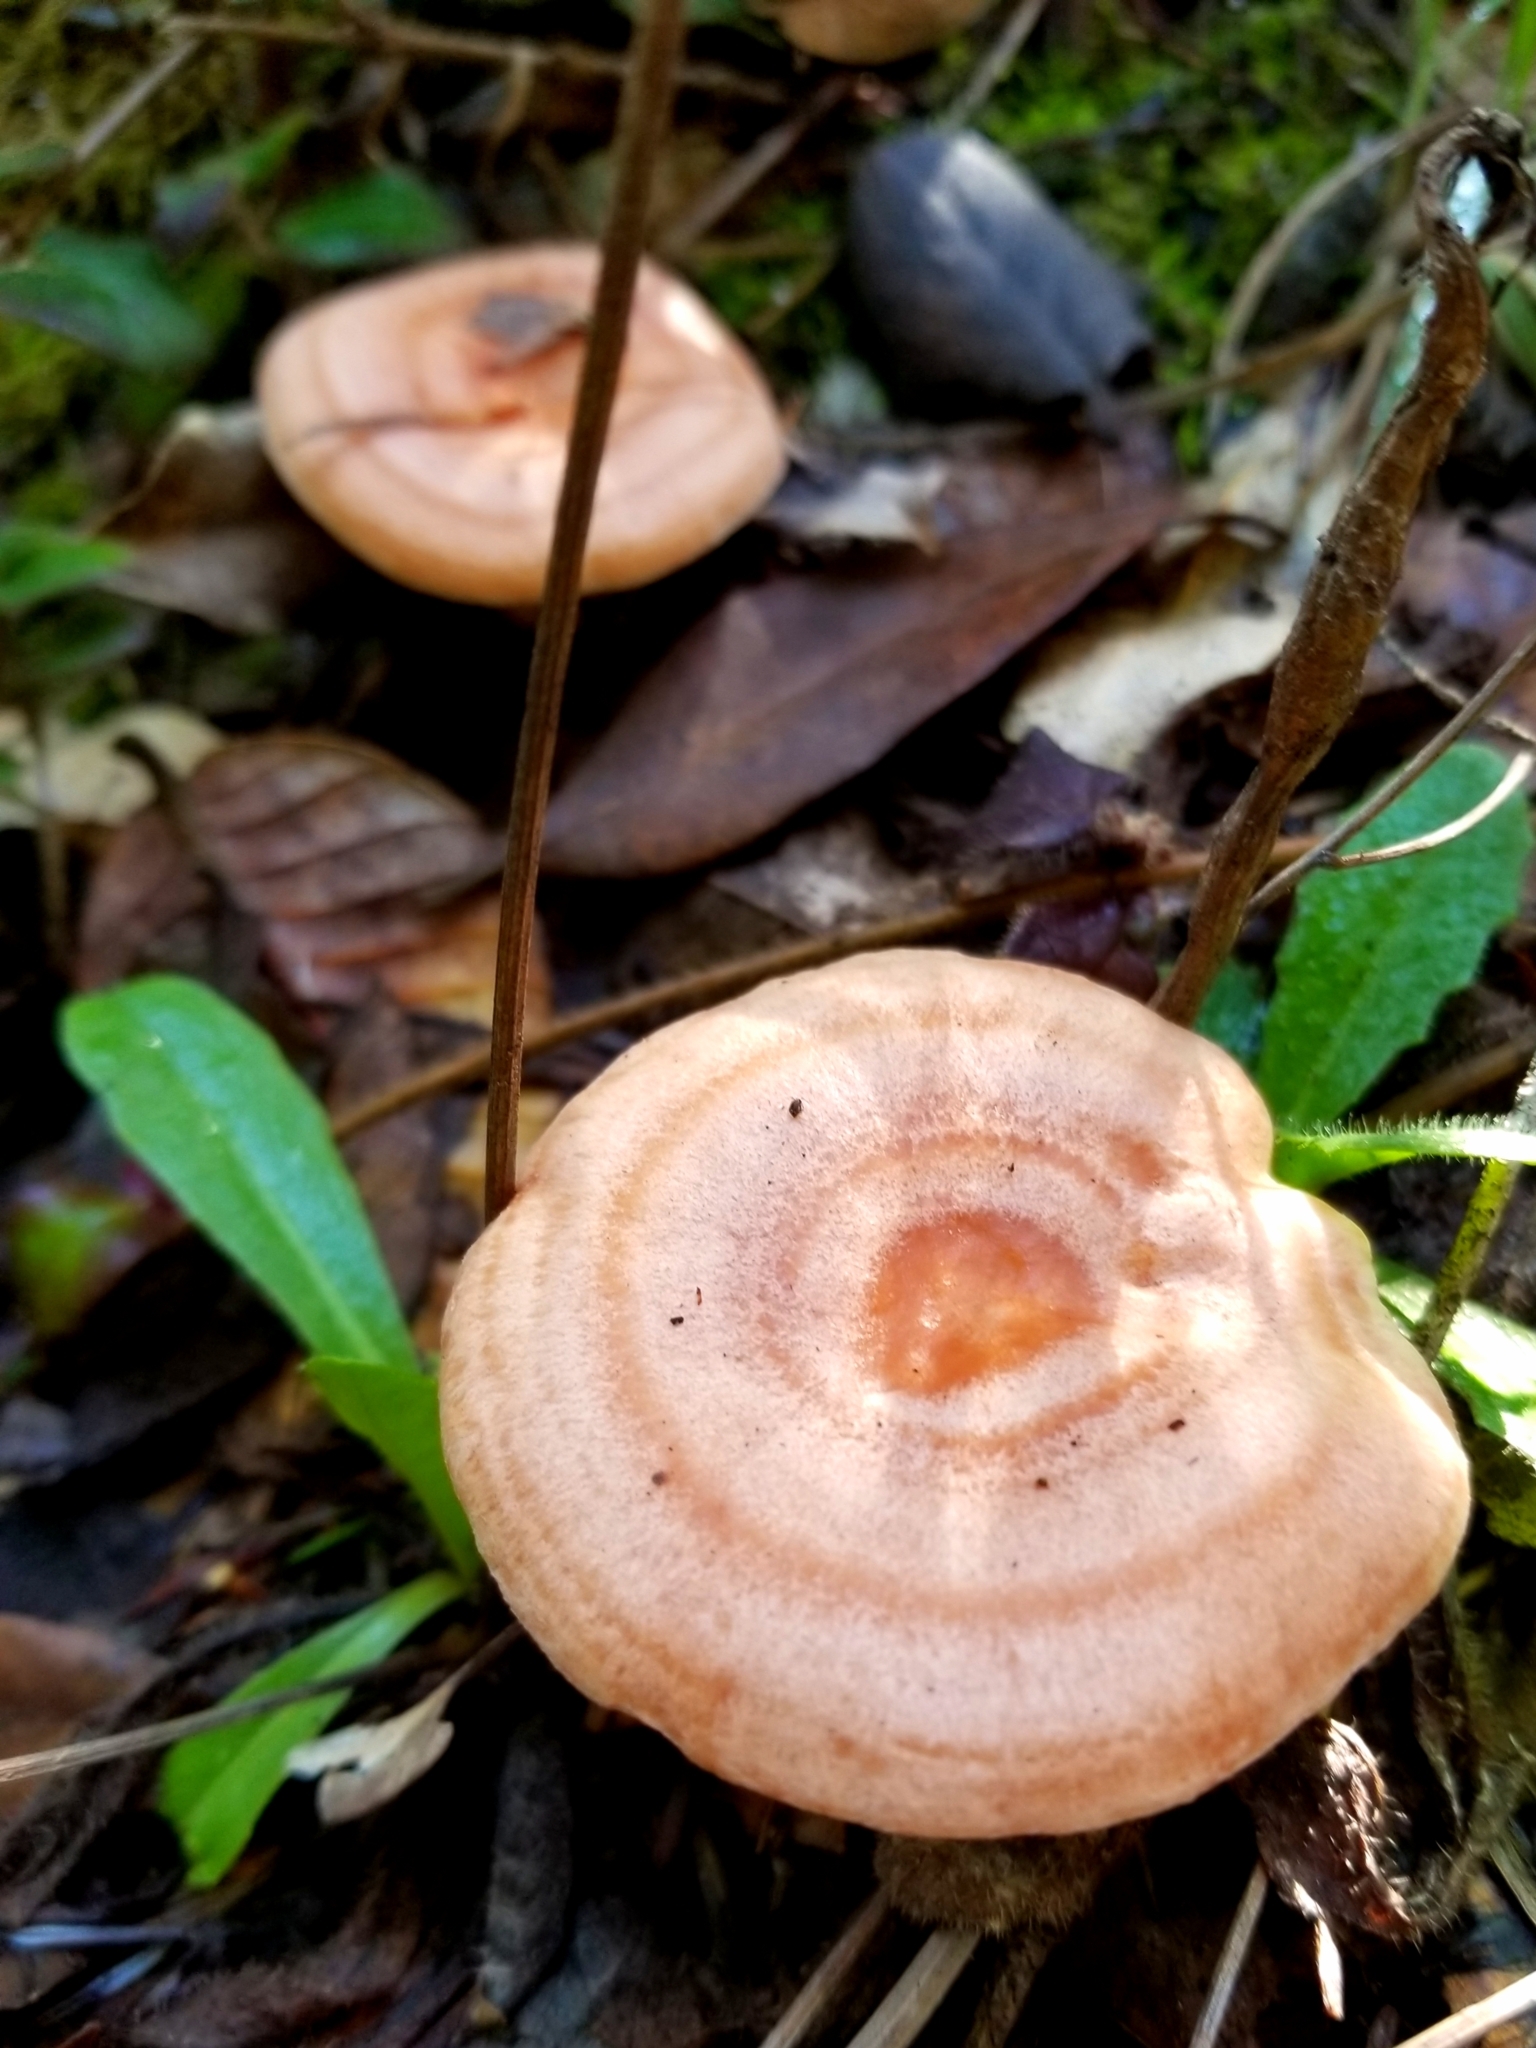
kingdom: Fungi
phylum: Basidiomycota
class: Agaricomycetes
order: Russulales
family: Russulaceae
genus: Lactarius
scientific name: Lactarius xanthogalactus
